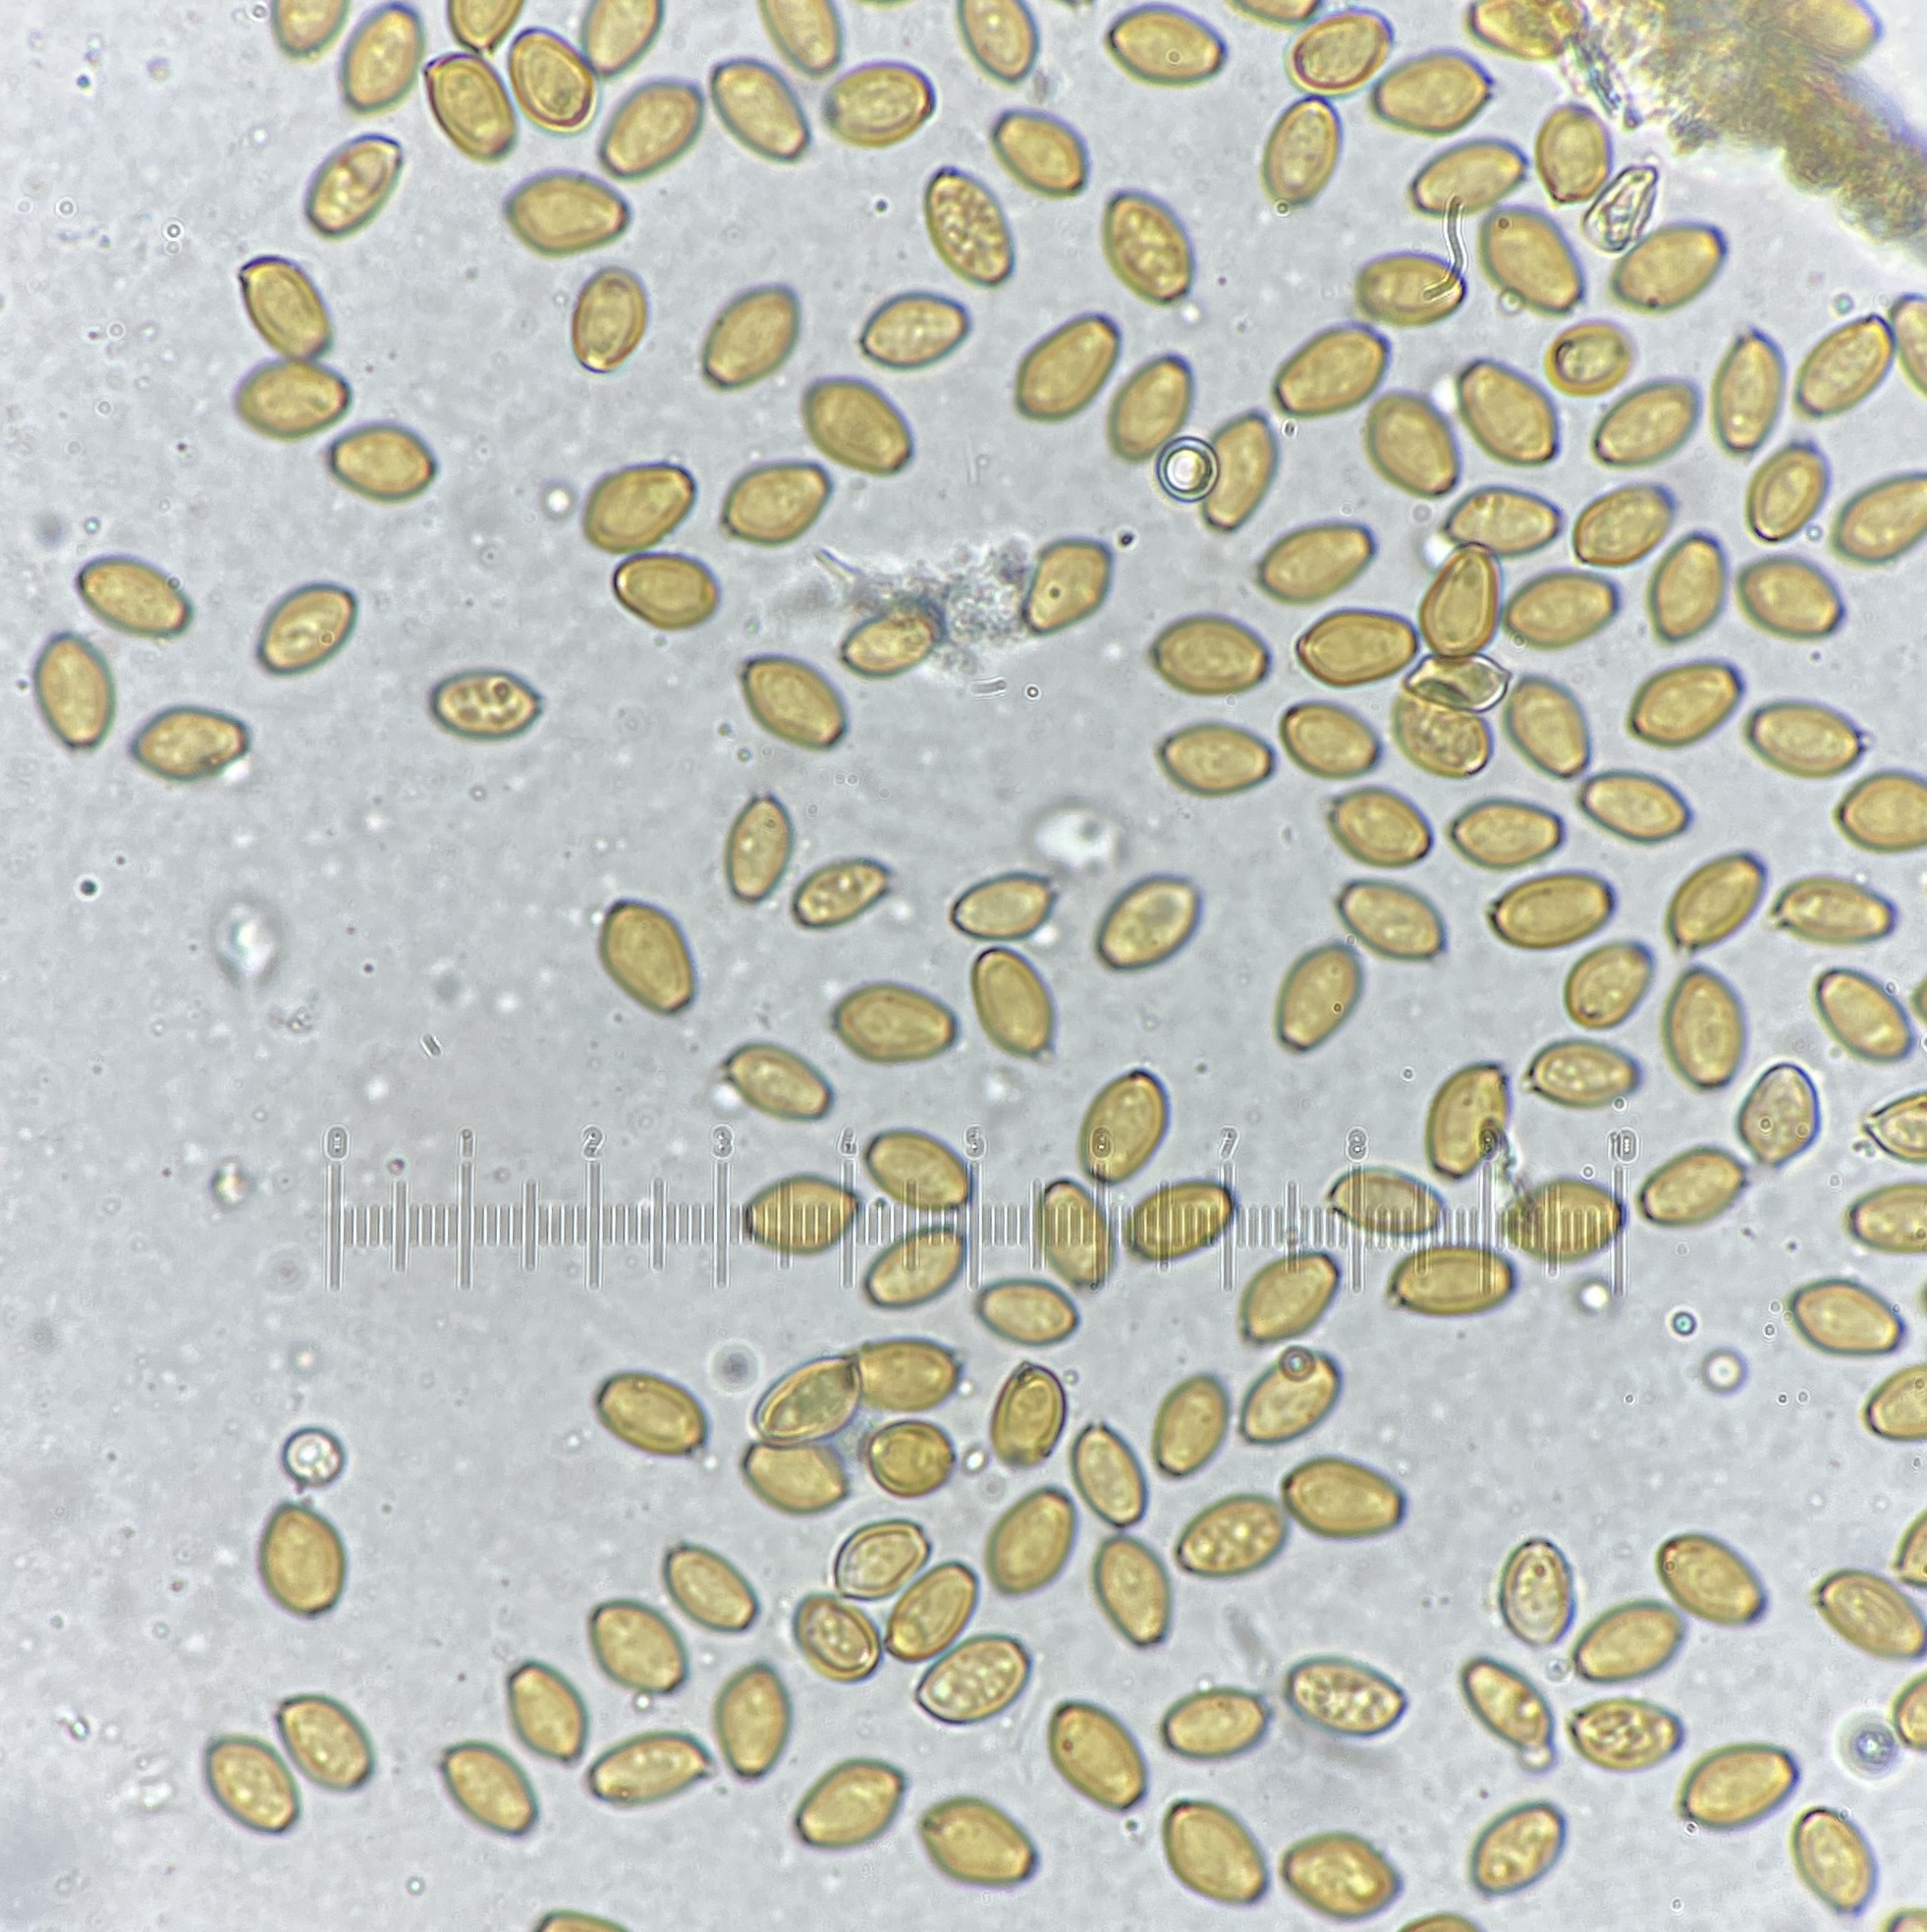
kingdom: Fungi
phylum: Basidiomycota
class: Agaricomycetes
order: Agaricales
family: Strophariaceae
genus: Agrocybe
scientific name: Agrocybe acericola
